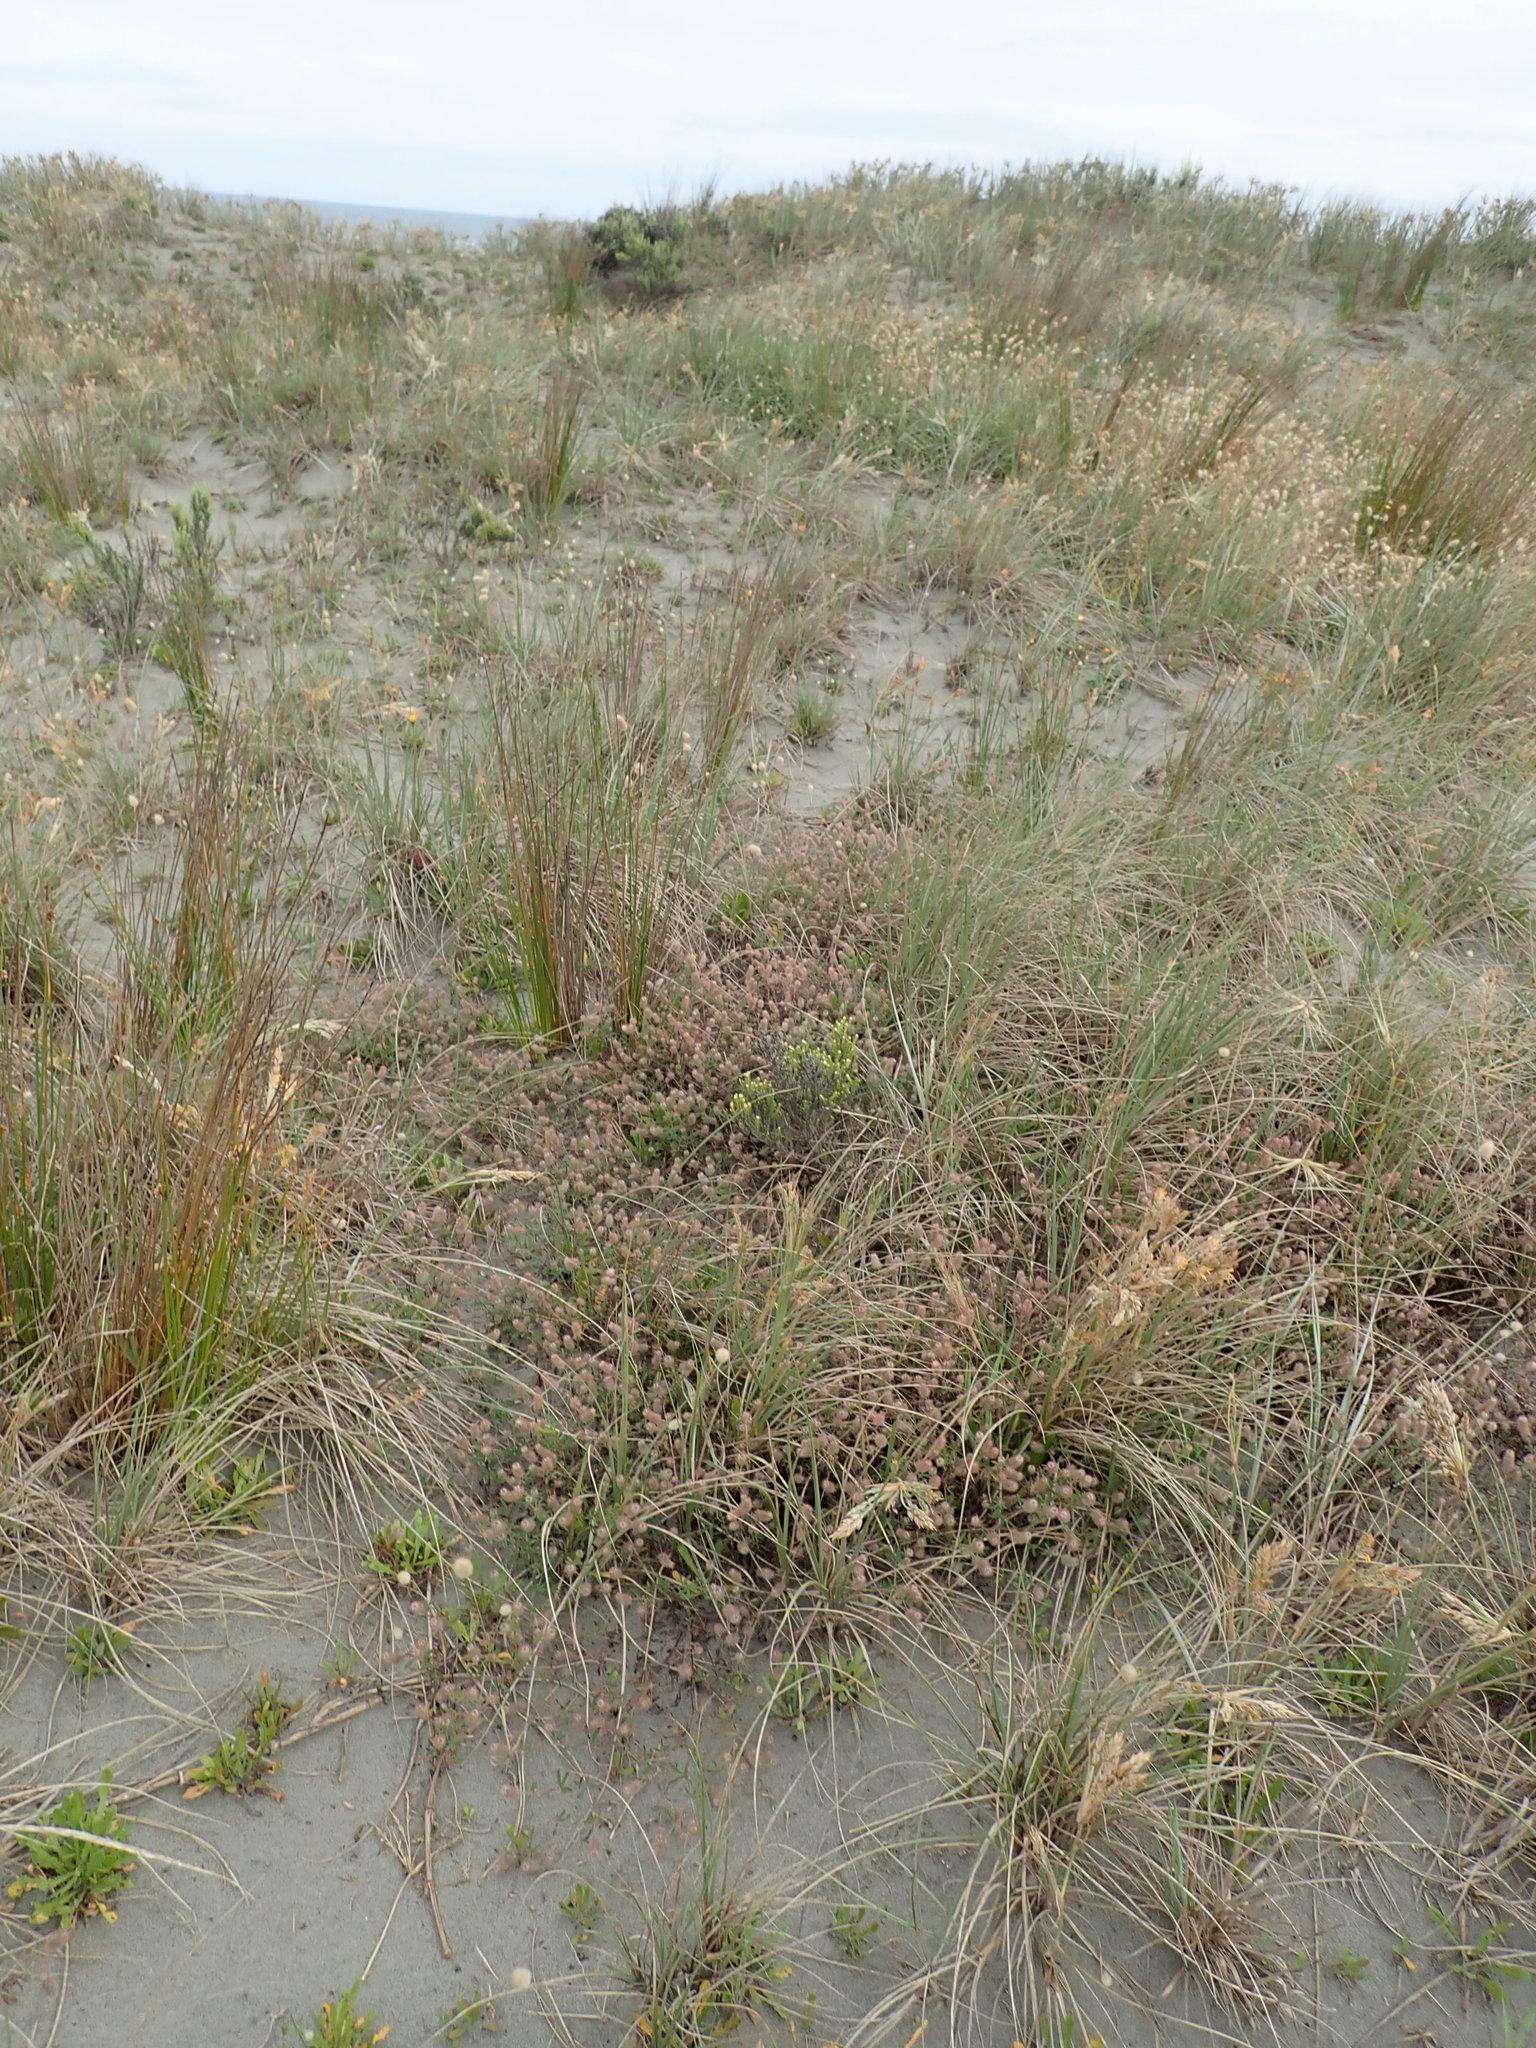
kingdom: Plantae
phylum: Tracheophyta
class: Magnoliopsida
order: Fabales
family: Fabaceae
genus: Trifolium
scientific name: Trifolium arvense
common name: Hare's-foot clover
